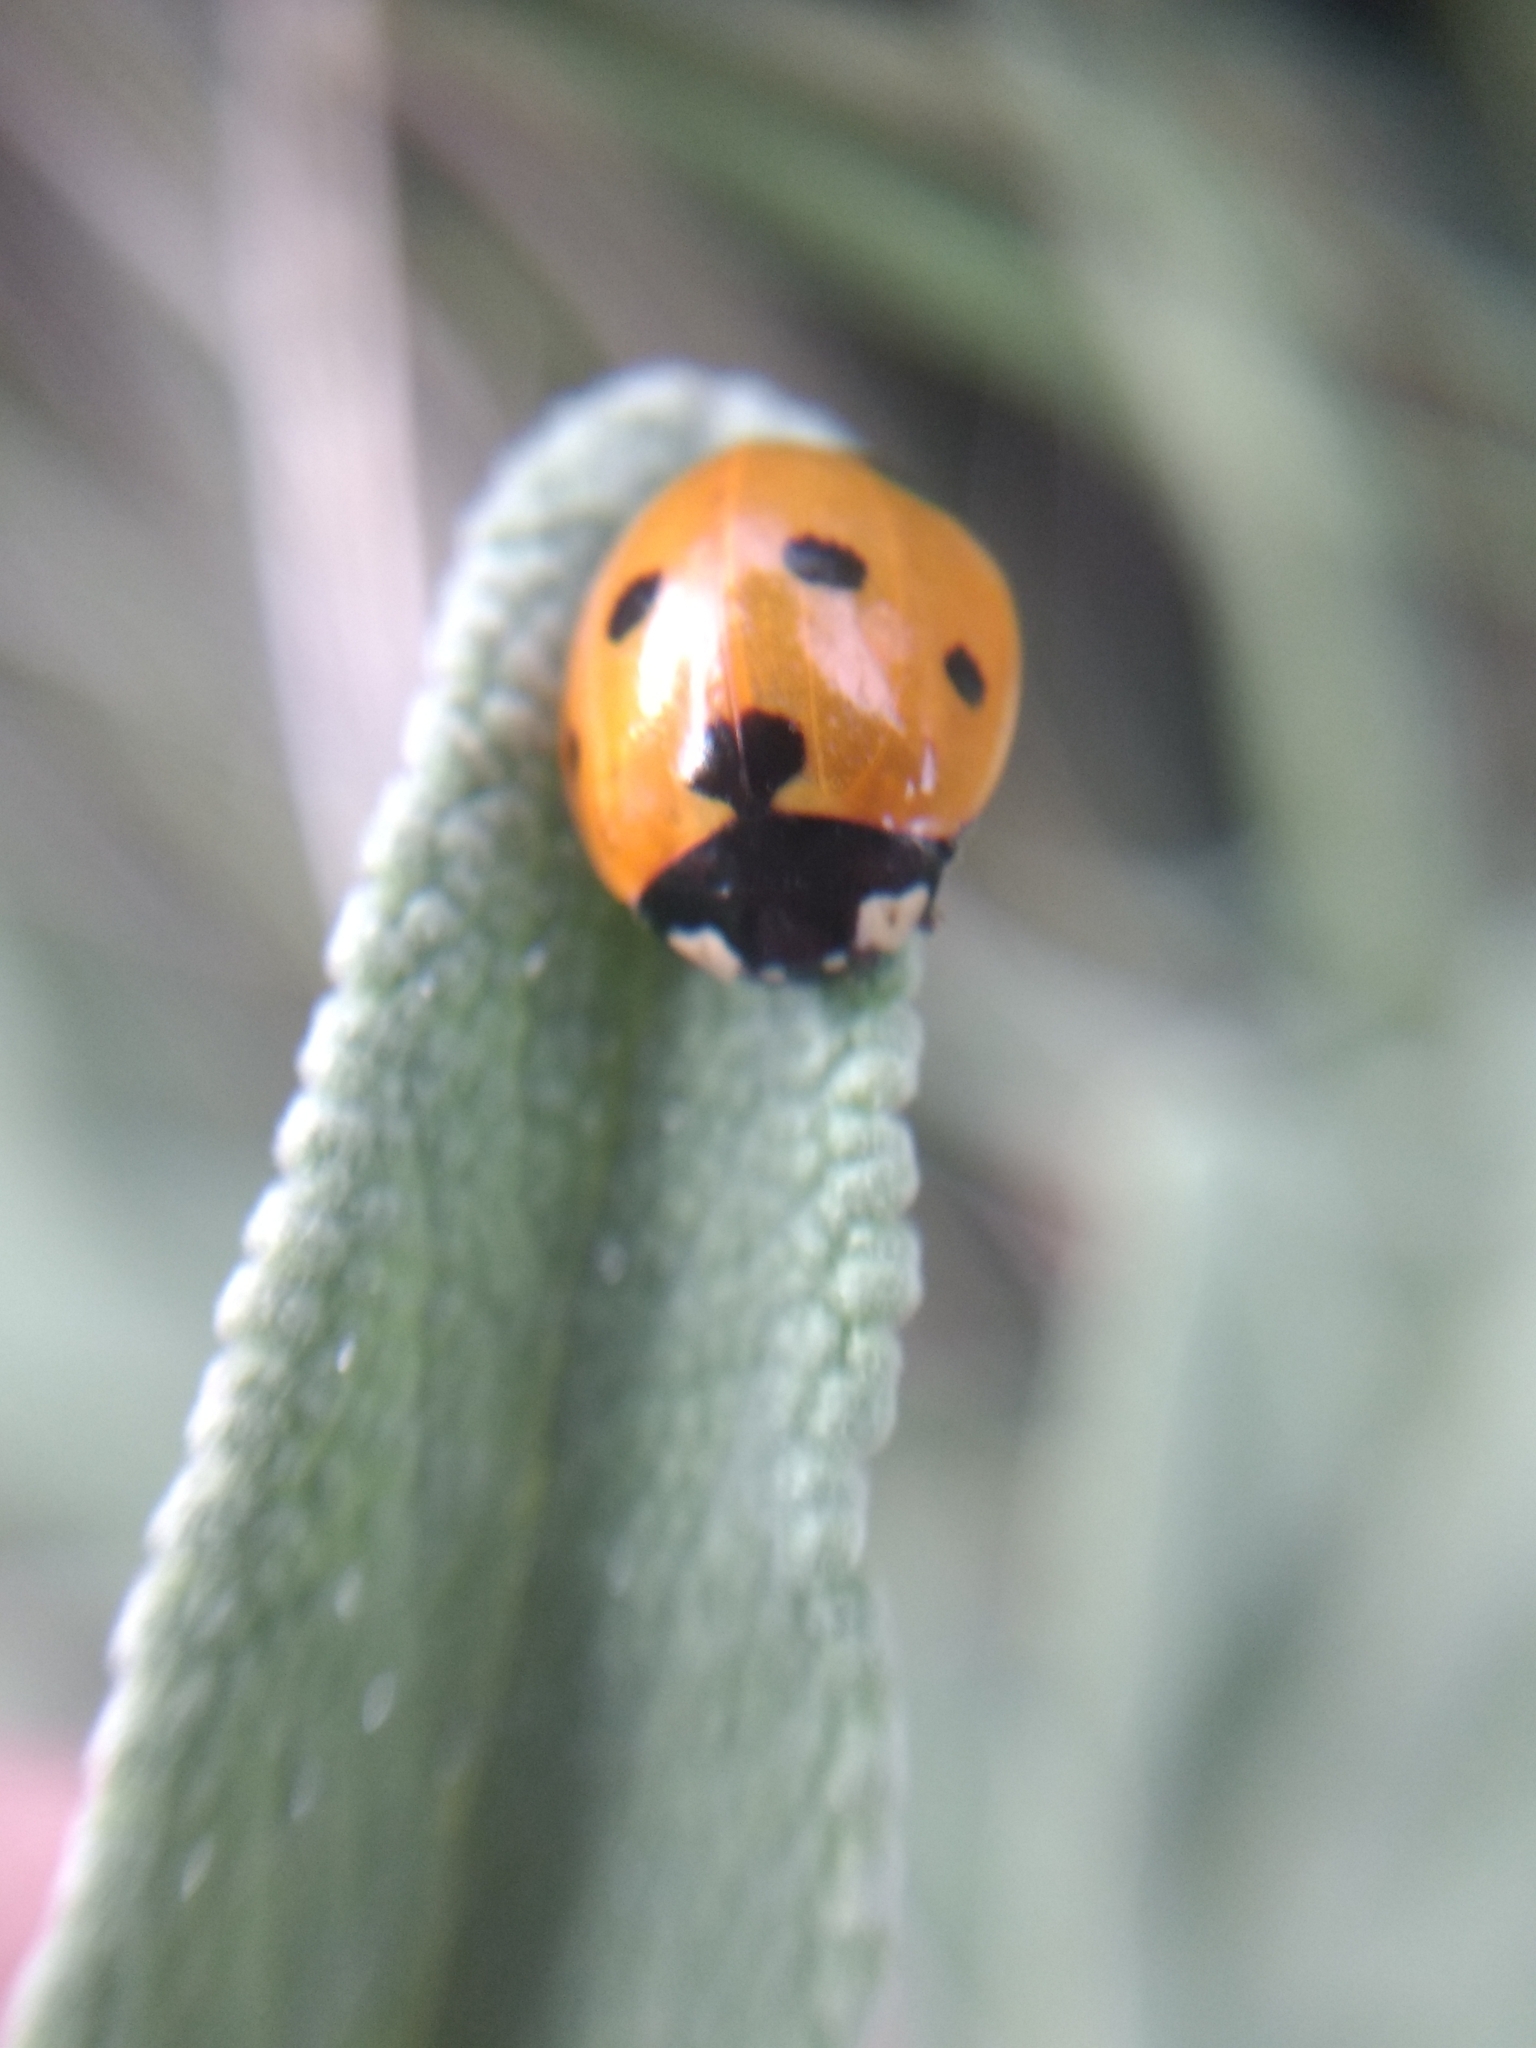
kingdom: Animalia
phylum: Arthropoda
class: Insecta
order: Coleoptera
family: Coccinellidae
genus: Coccinella
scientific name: Coccinella septempunctata
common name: Sevenspotted lady beetle
